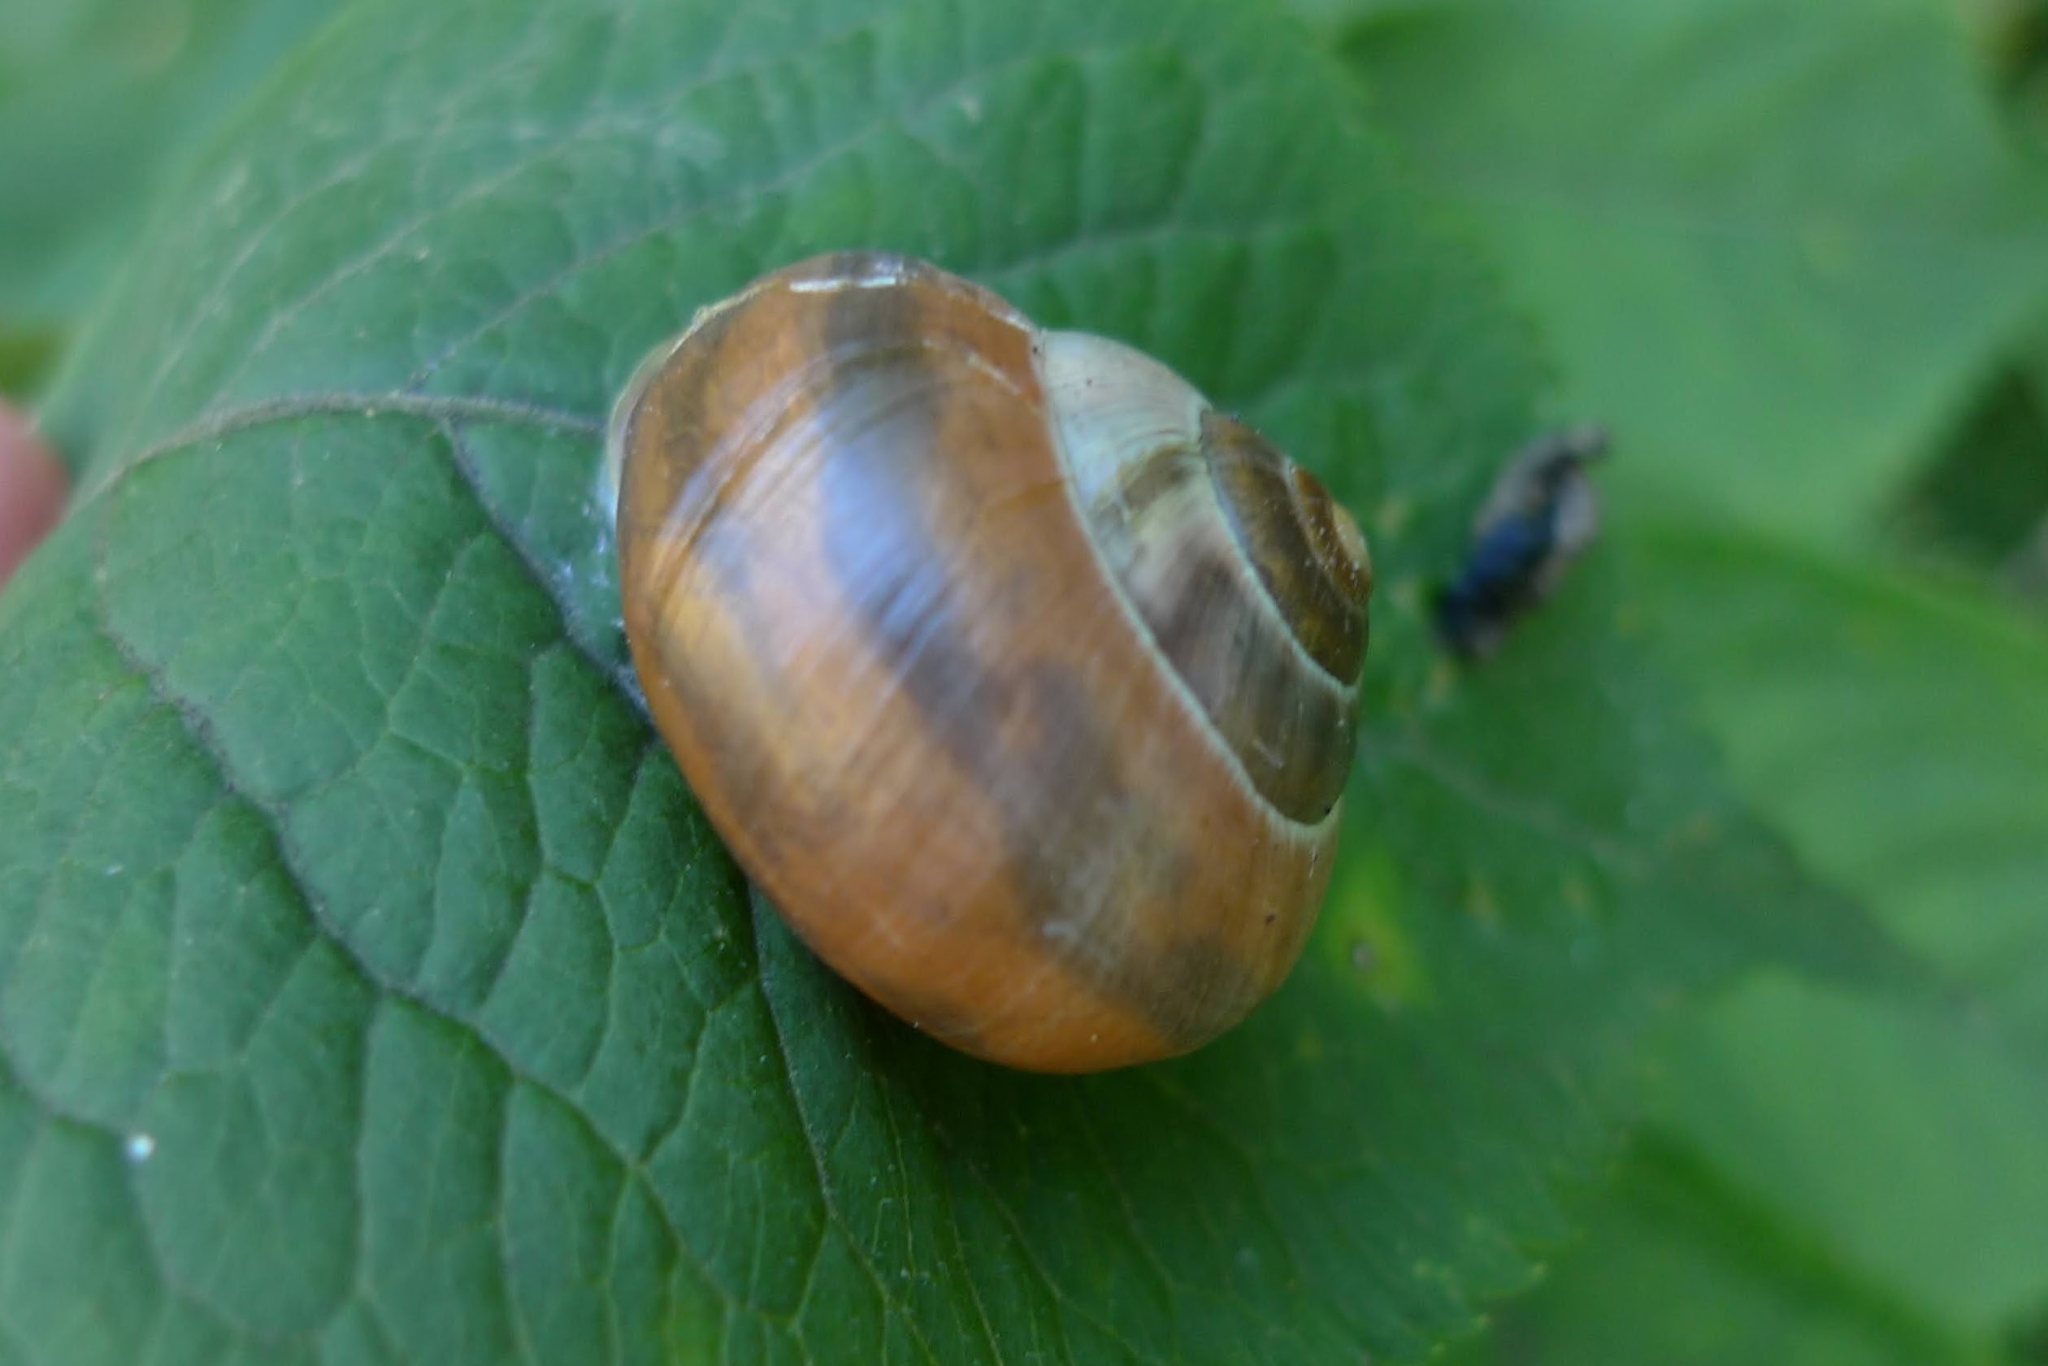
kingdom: Animalia
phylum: Mollusca
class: Gastropoda
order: Stylommatophora
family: Helicidae
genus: Cepaea
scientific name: Cepaea nemoralis
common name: Grovesnail
